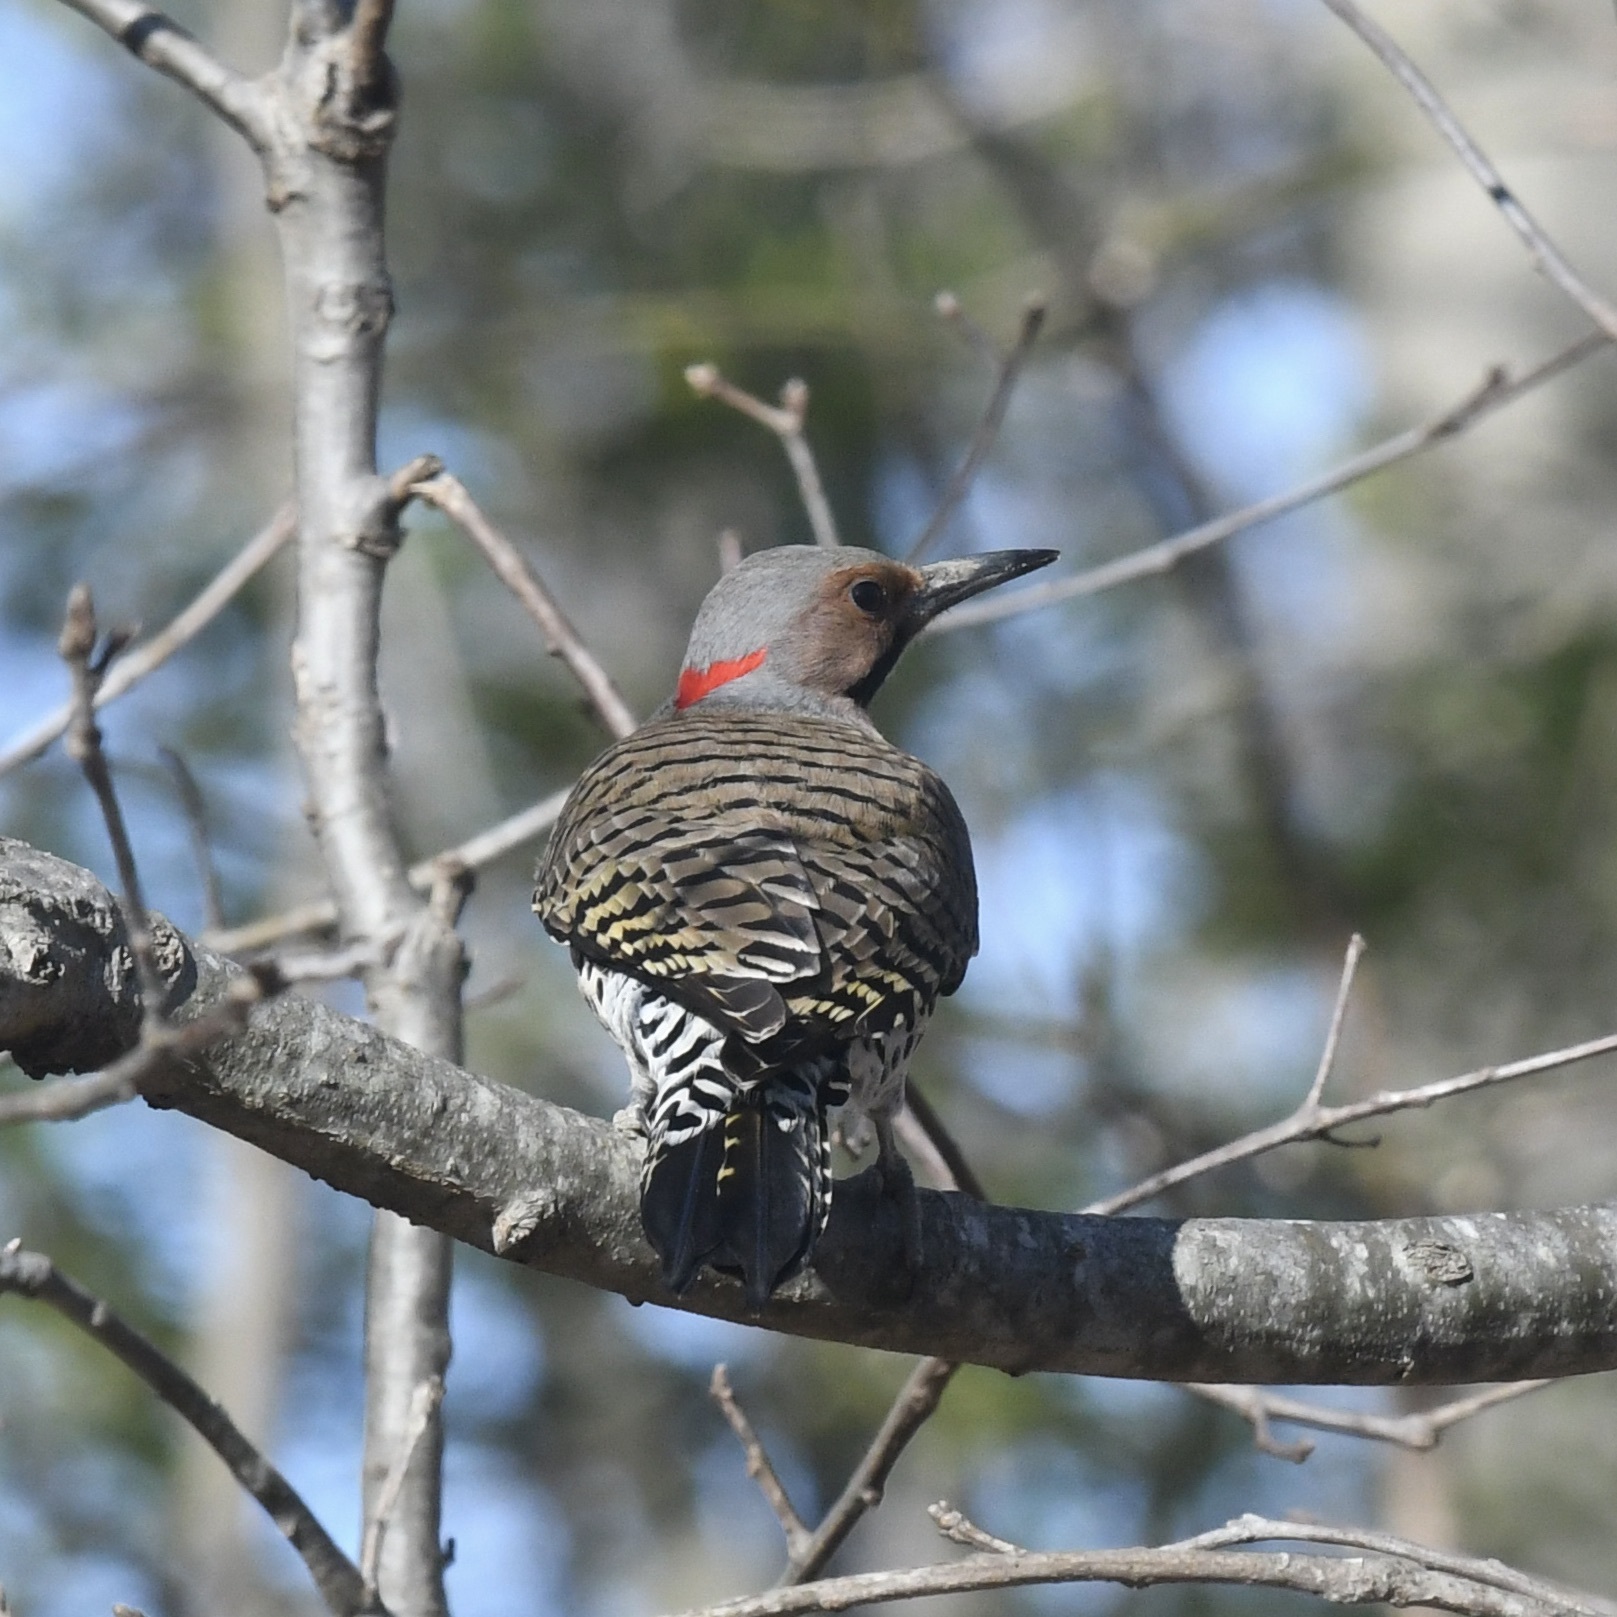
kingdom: Animalia
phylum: Chordata
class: Aves
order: Piciformes
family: Picidae
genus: Colaptes
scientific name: Colaptes auratus
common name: Northern flicker
